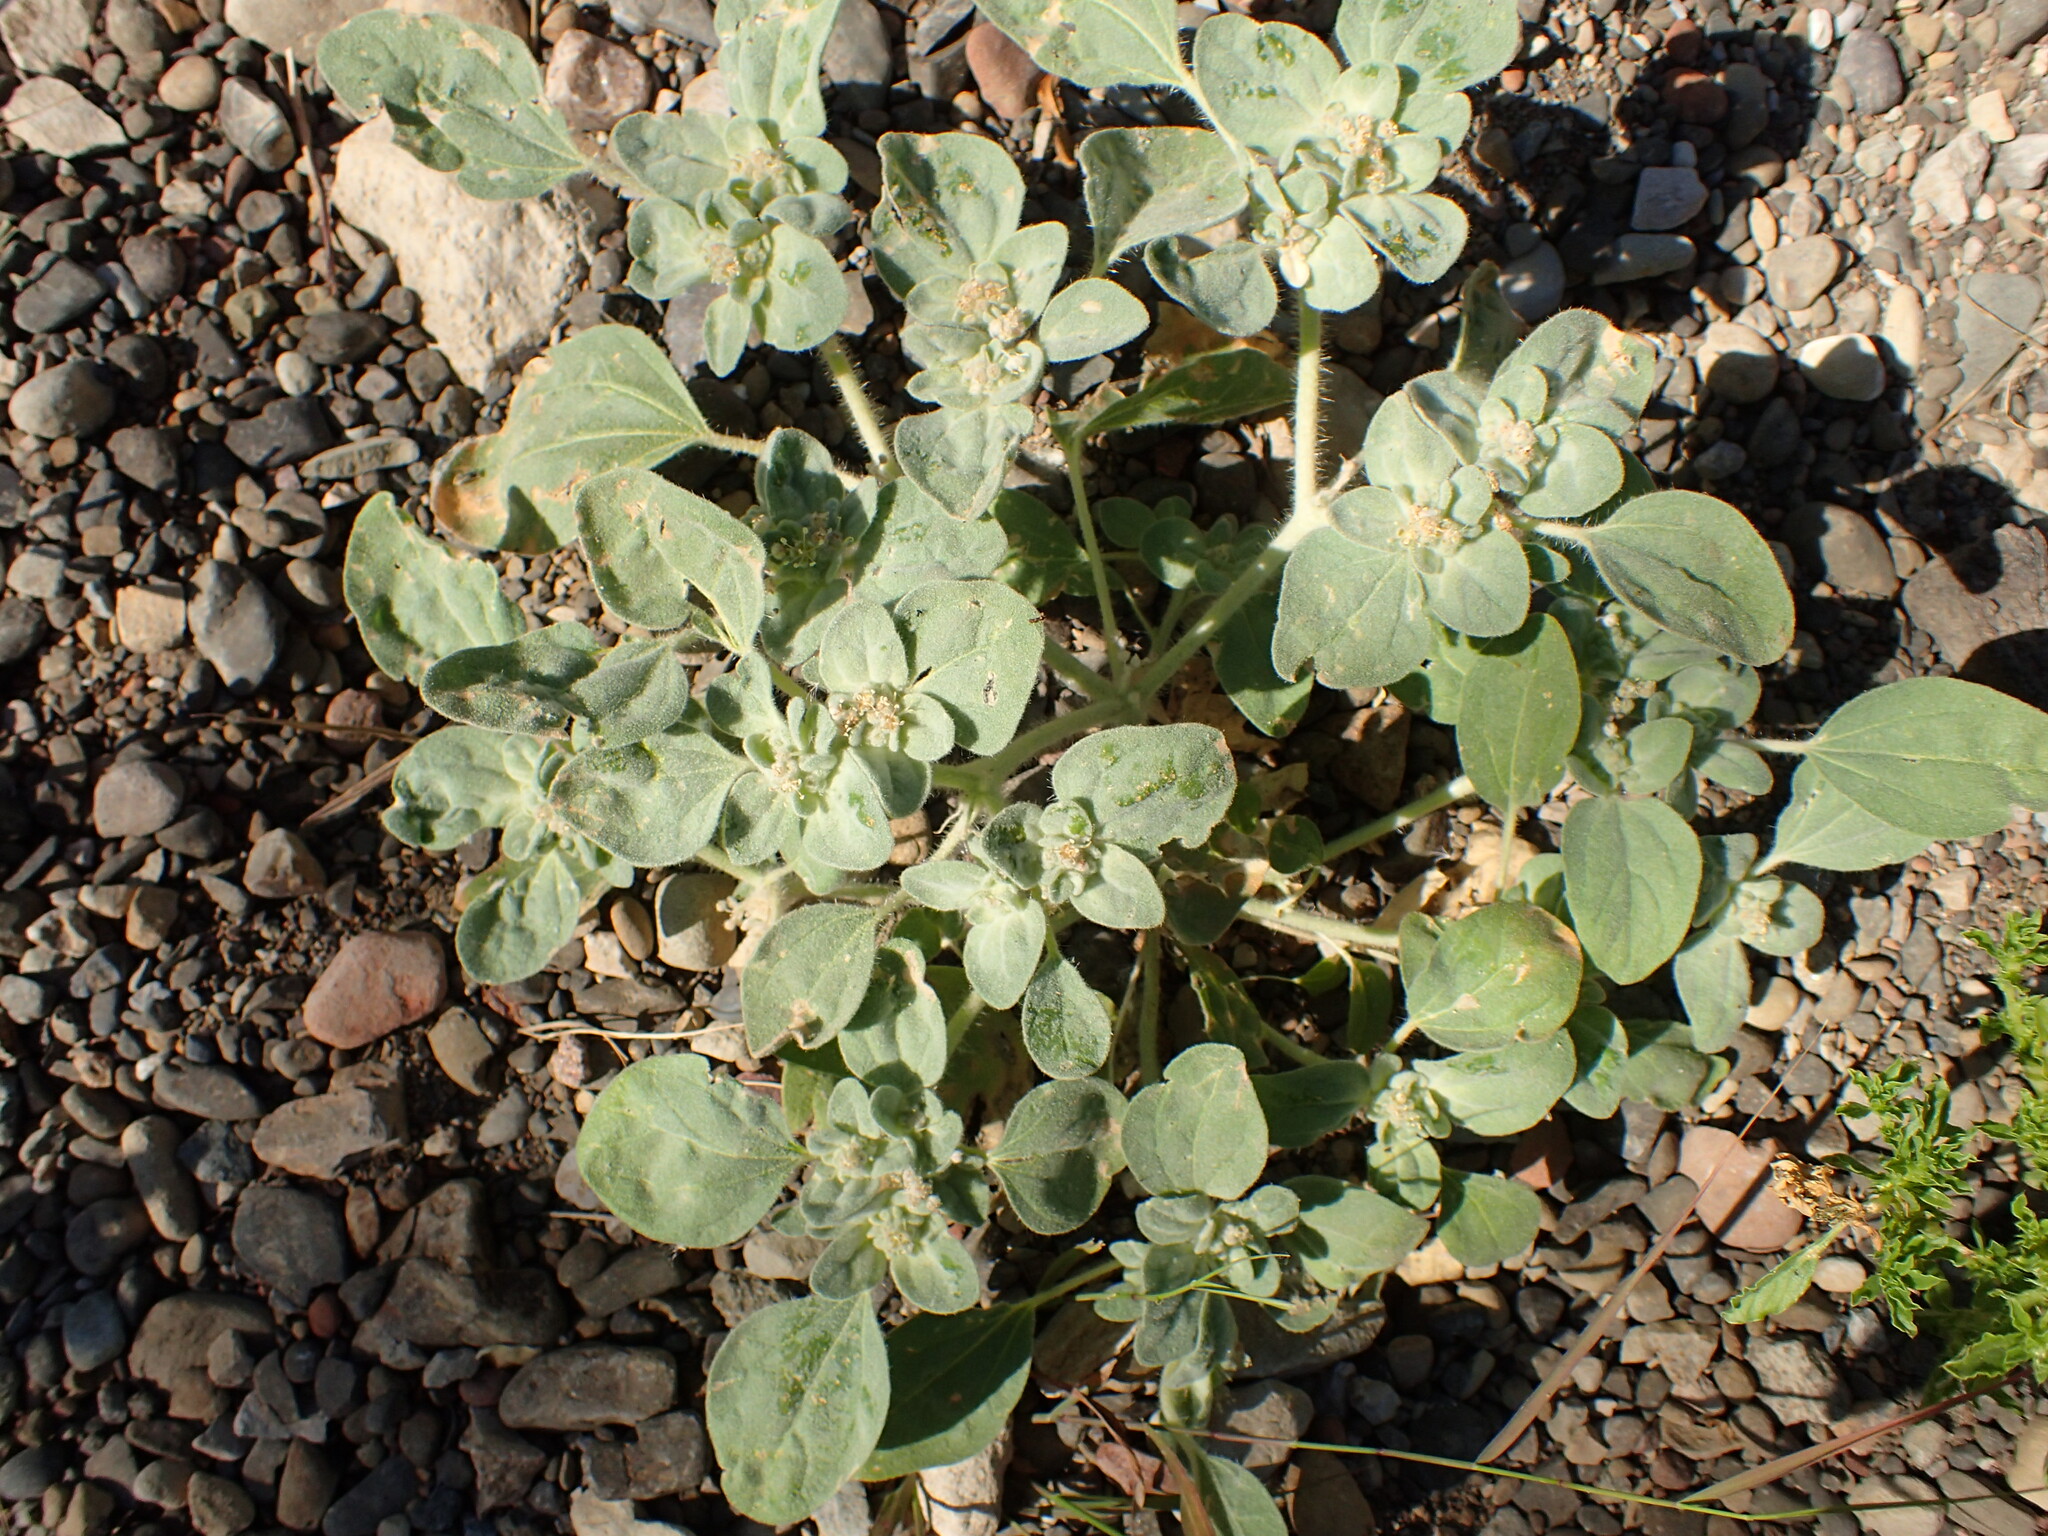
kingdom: Plantae
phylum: Tracheophyta
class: Magnoliopsida
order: Malpighiales
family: Euphorbiaceae
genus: Croton
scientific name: Croton setiger
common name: Dove weed
